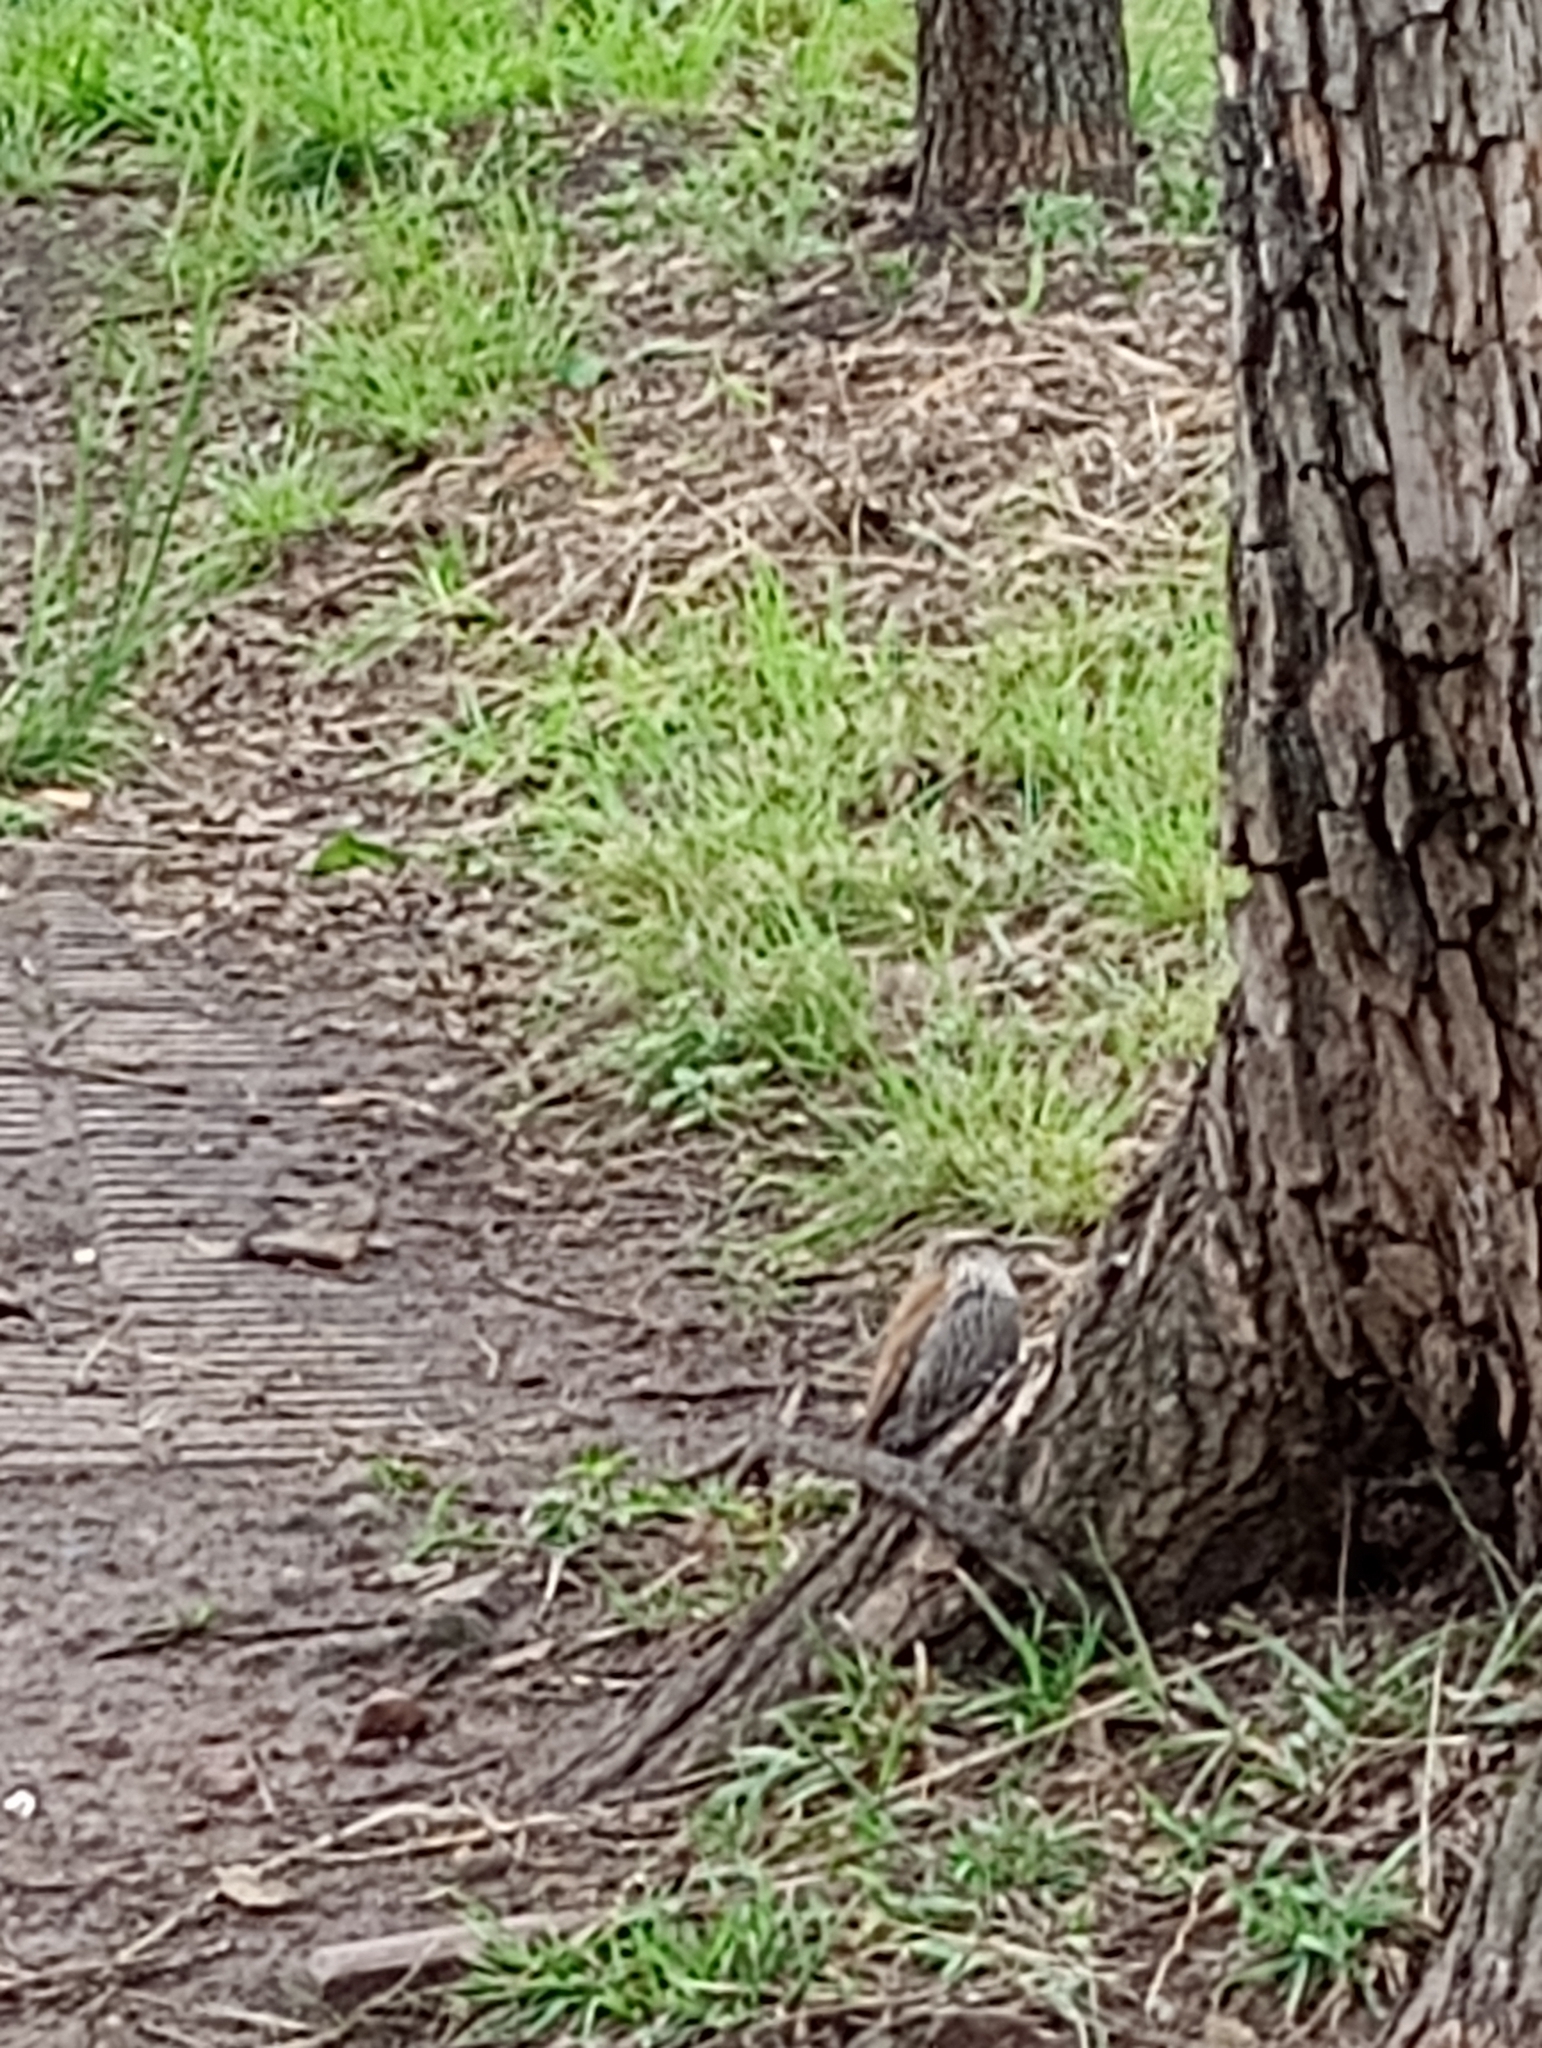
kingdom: Animalia
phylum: Chordata
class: Aves
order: Passeriformes
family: Furnariidae
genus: Lepidocolaptes
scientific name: Lepidocolaptes angustirostris
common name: Narrow-billed woodcreeper
